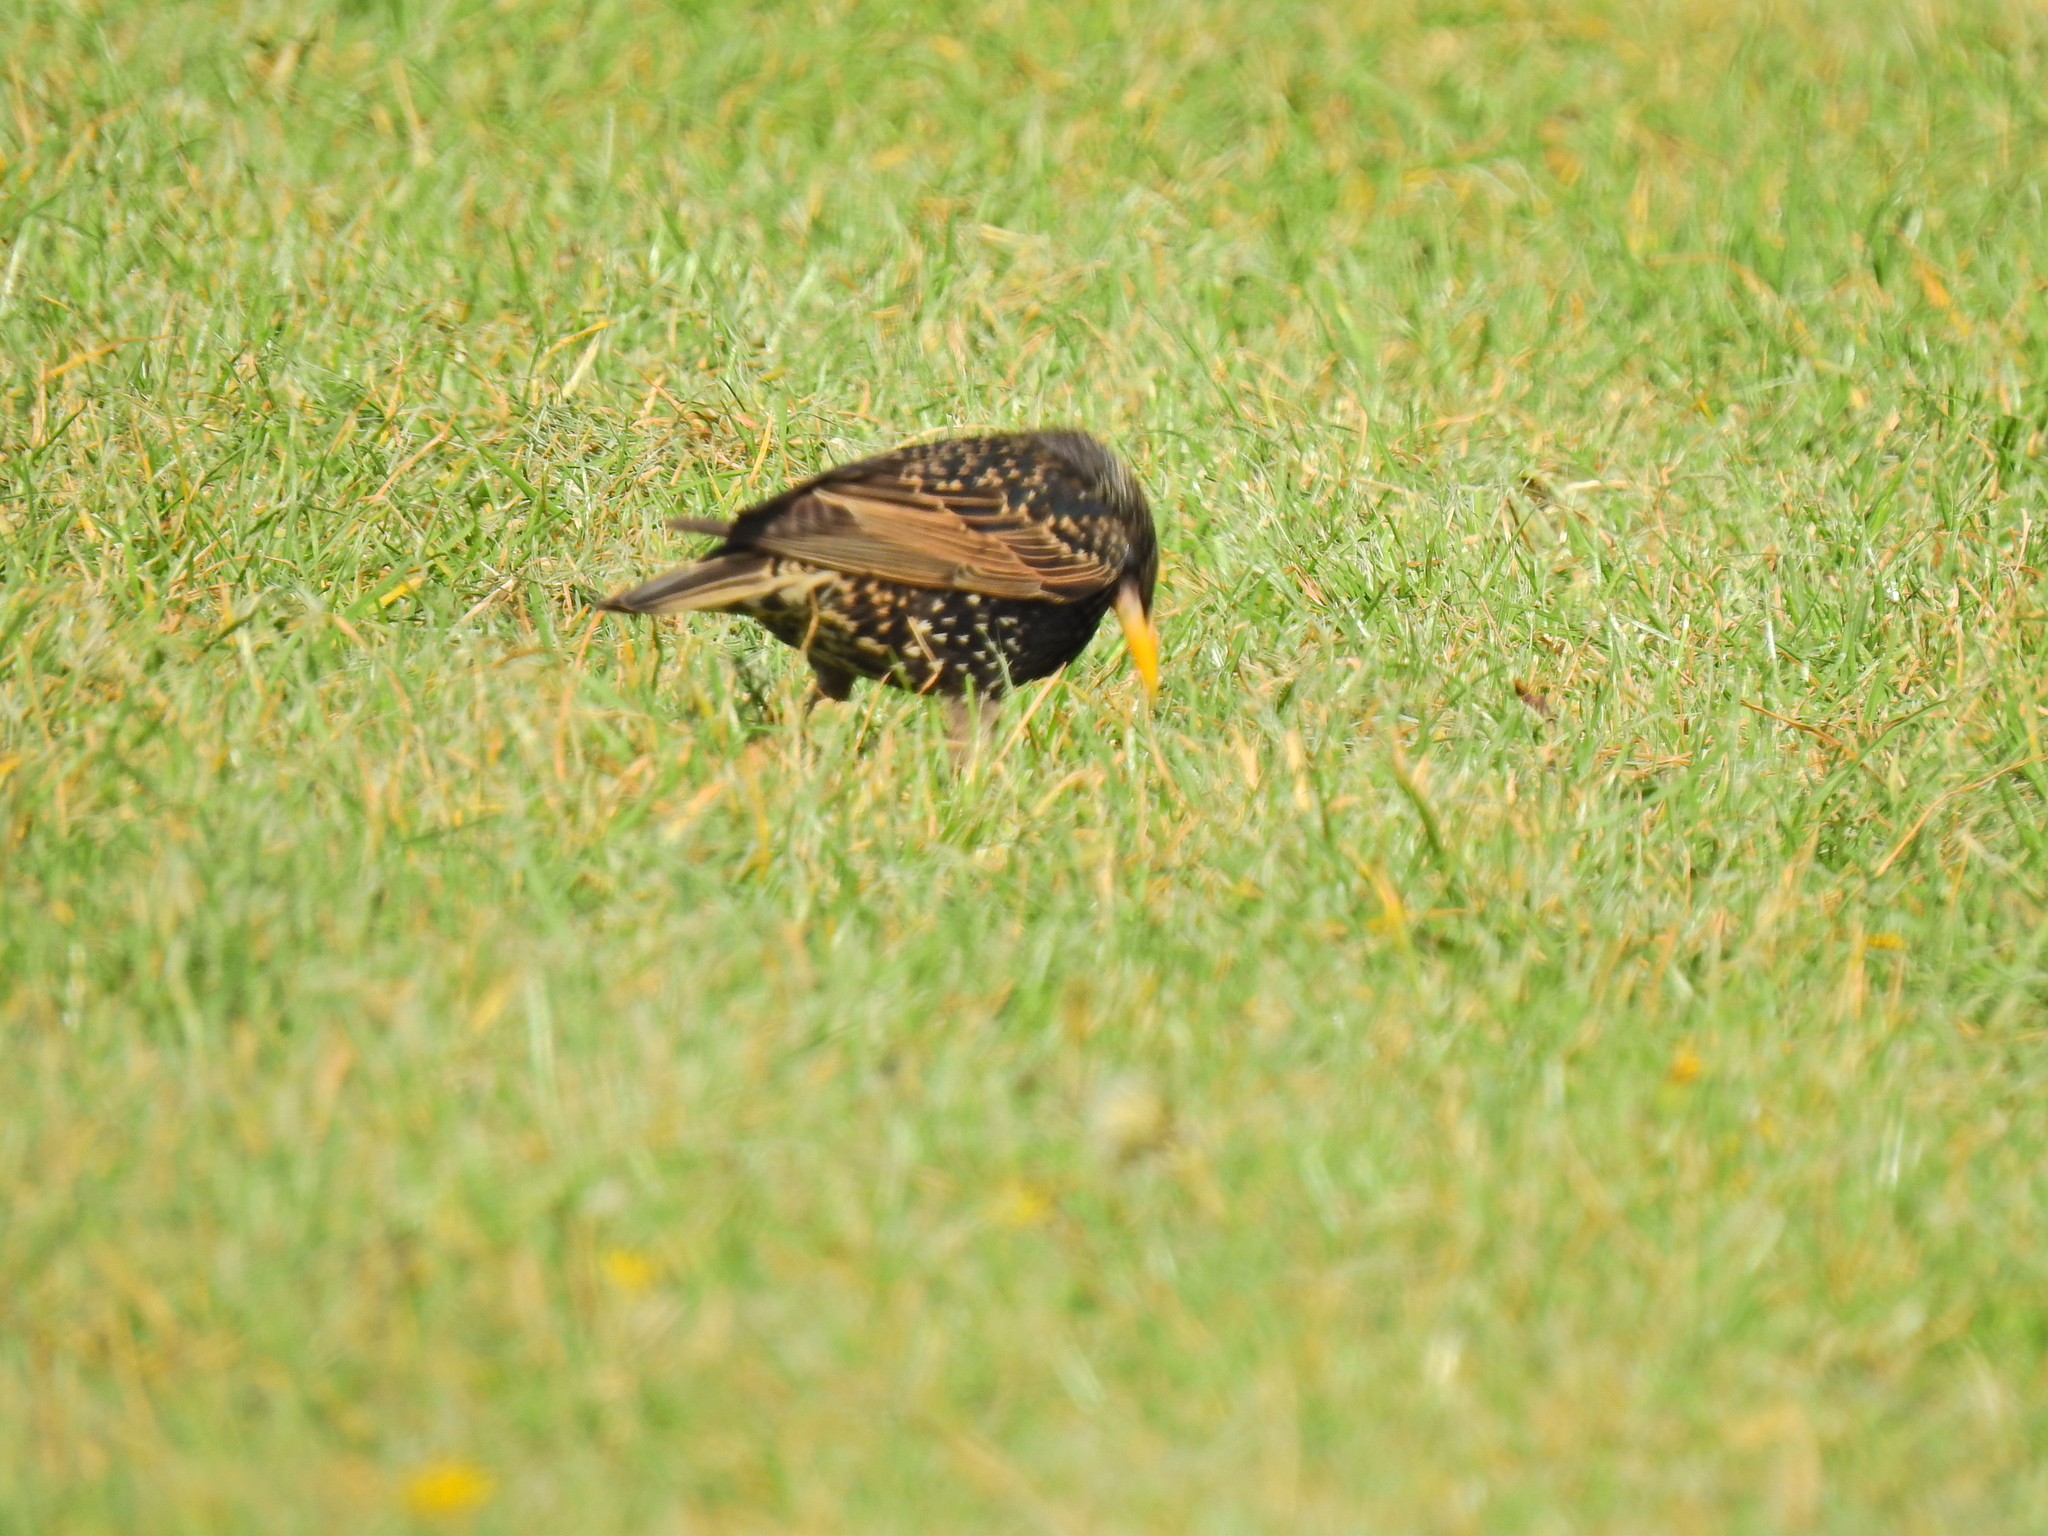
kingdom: Animalia
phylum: Chordata
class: Aves
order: Passeriformes
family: Sturnidae
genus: Sturnus
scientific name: Sturnus vulgaris
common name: Common starling
